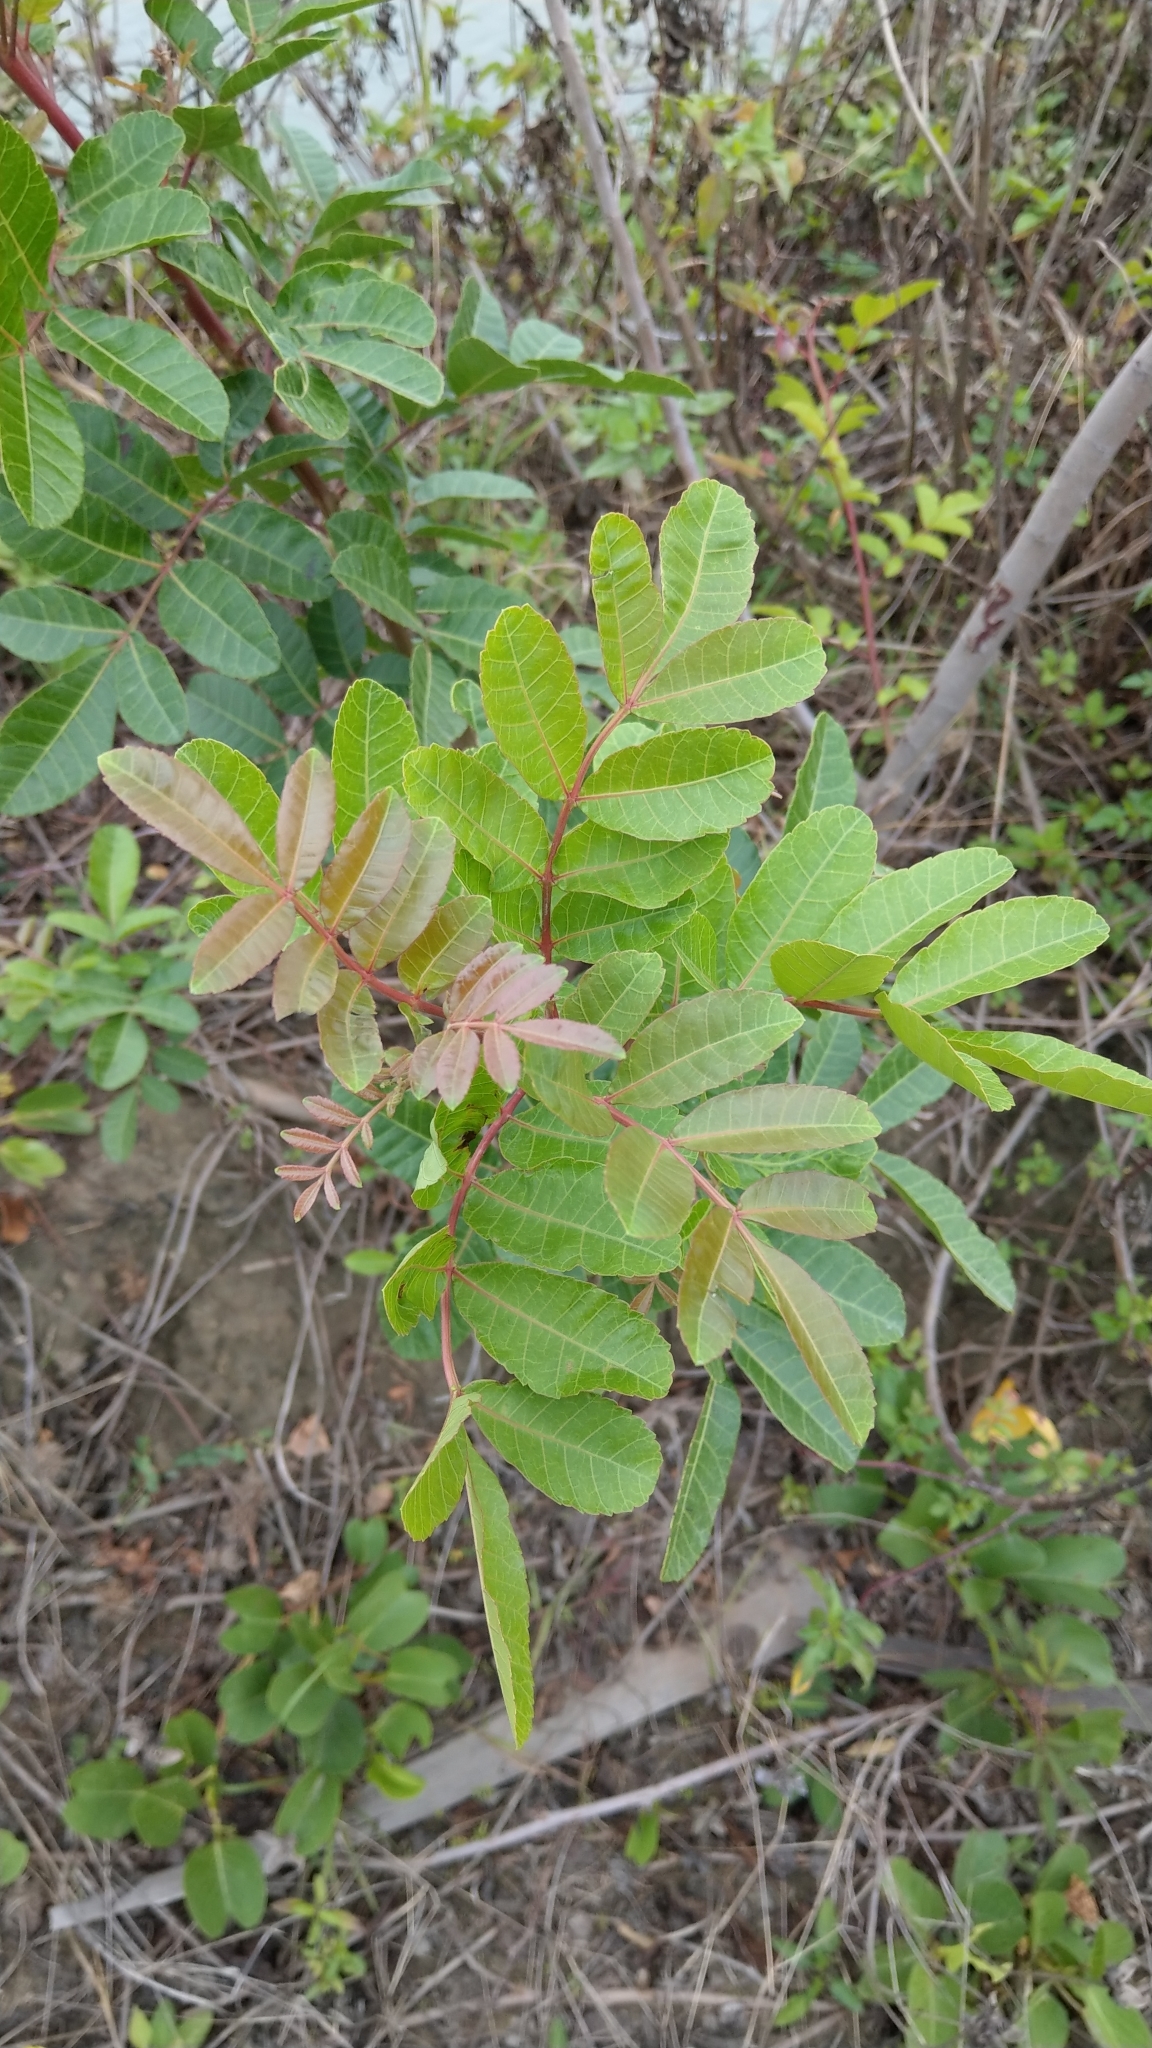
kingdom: Plantae
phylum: Tracheophyta
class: Magnoliopsida
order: Sapindales
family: Anacardiaceae
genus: Schinus
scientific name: Schinus terebinthifolia
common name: Brazilian peppertree
